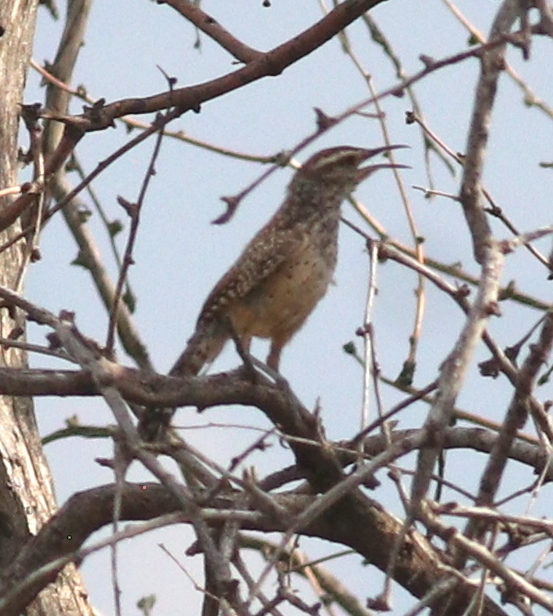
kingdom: Animalia
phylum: Chordata
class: Aves
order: Passeriformes
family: Troglodytidae
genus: Campylorhynchus
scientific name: Campylorhynchus brunneicapillus
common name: Cactus wren
